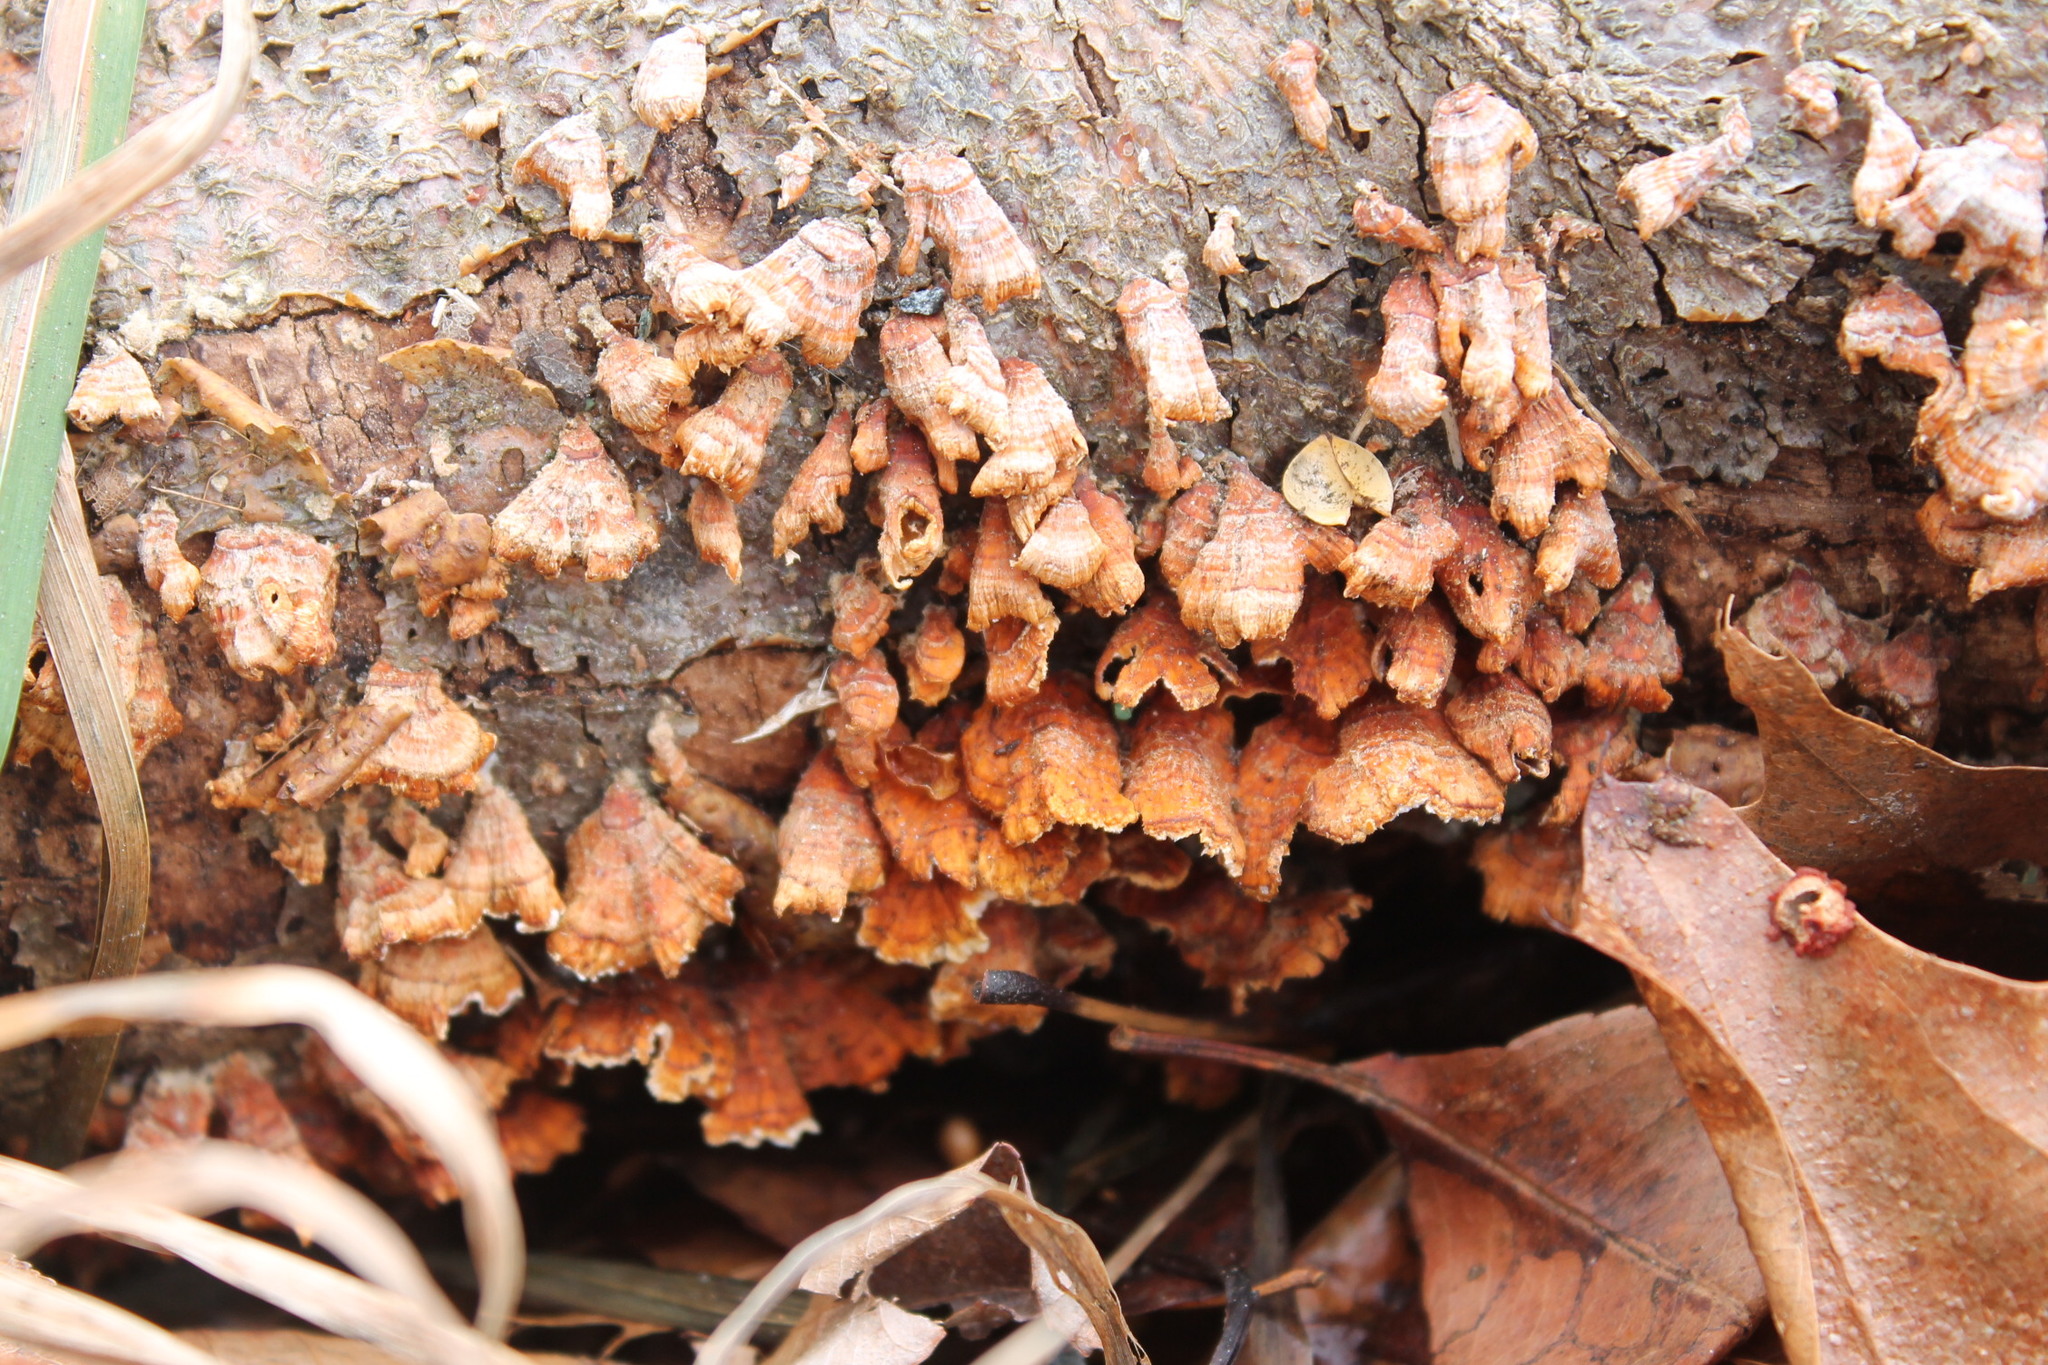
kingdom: Fungi
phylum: Basidiomycota
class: Agaricomycetes
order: Russulales
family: Stereaceae
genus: Stereum
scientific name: Stereum complicatum
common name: Crowded parchment
